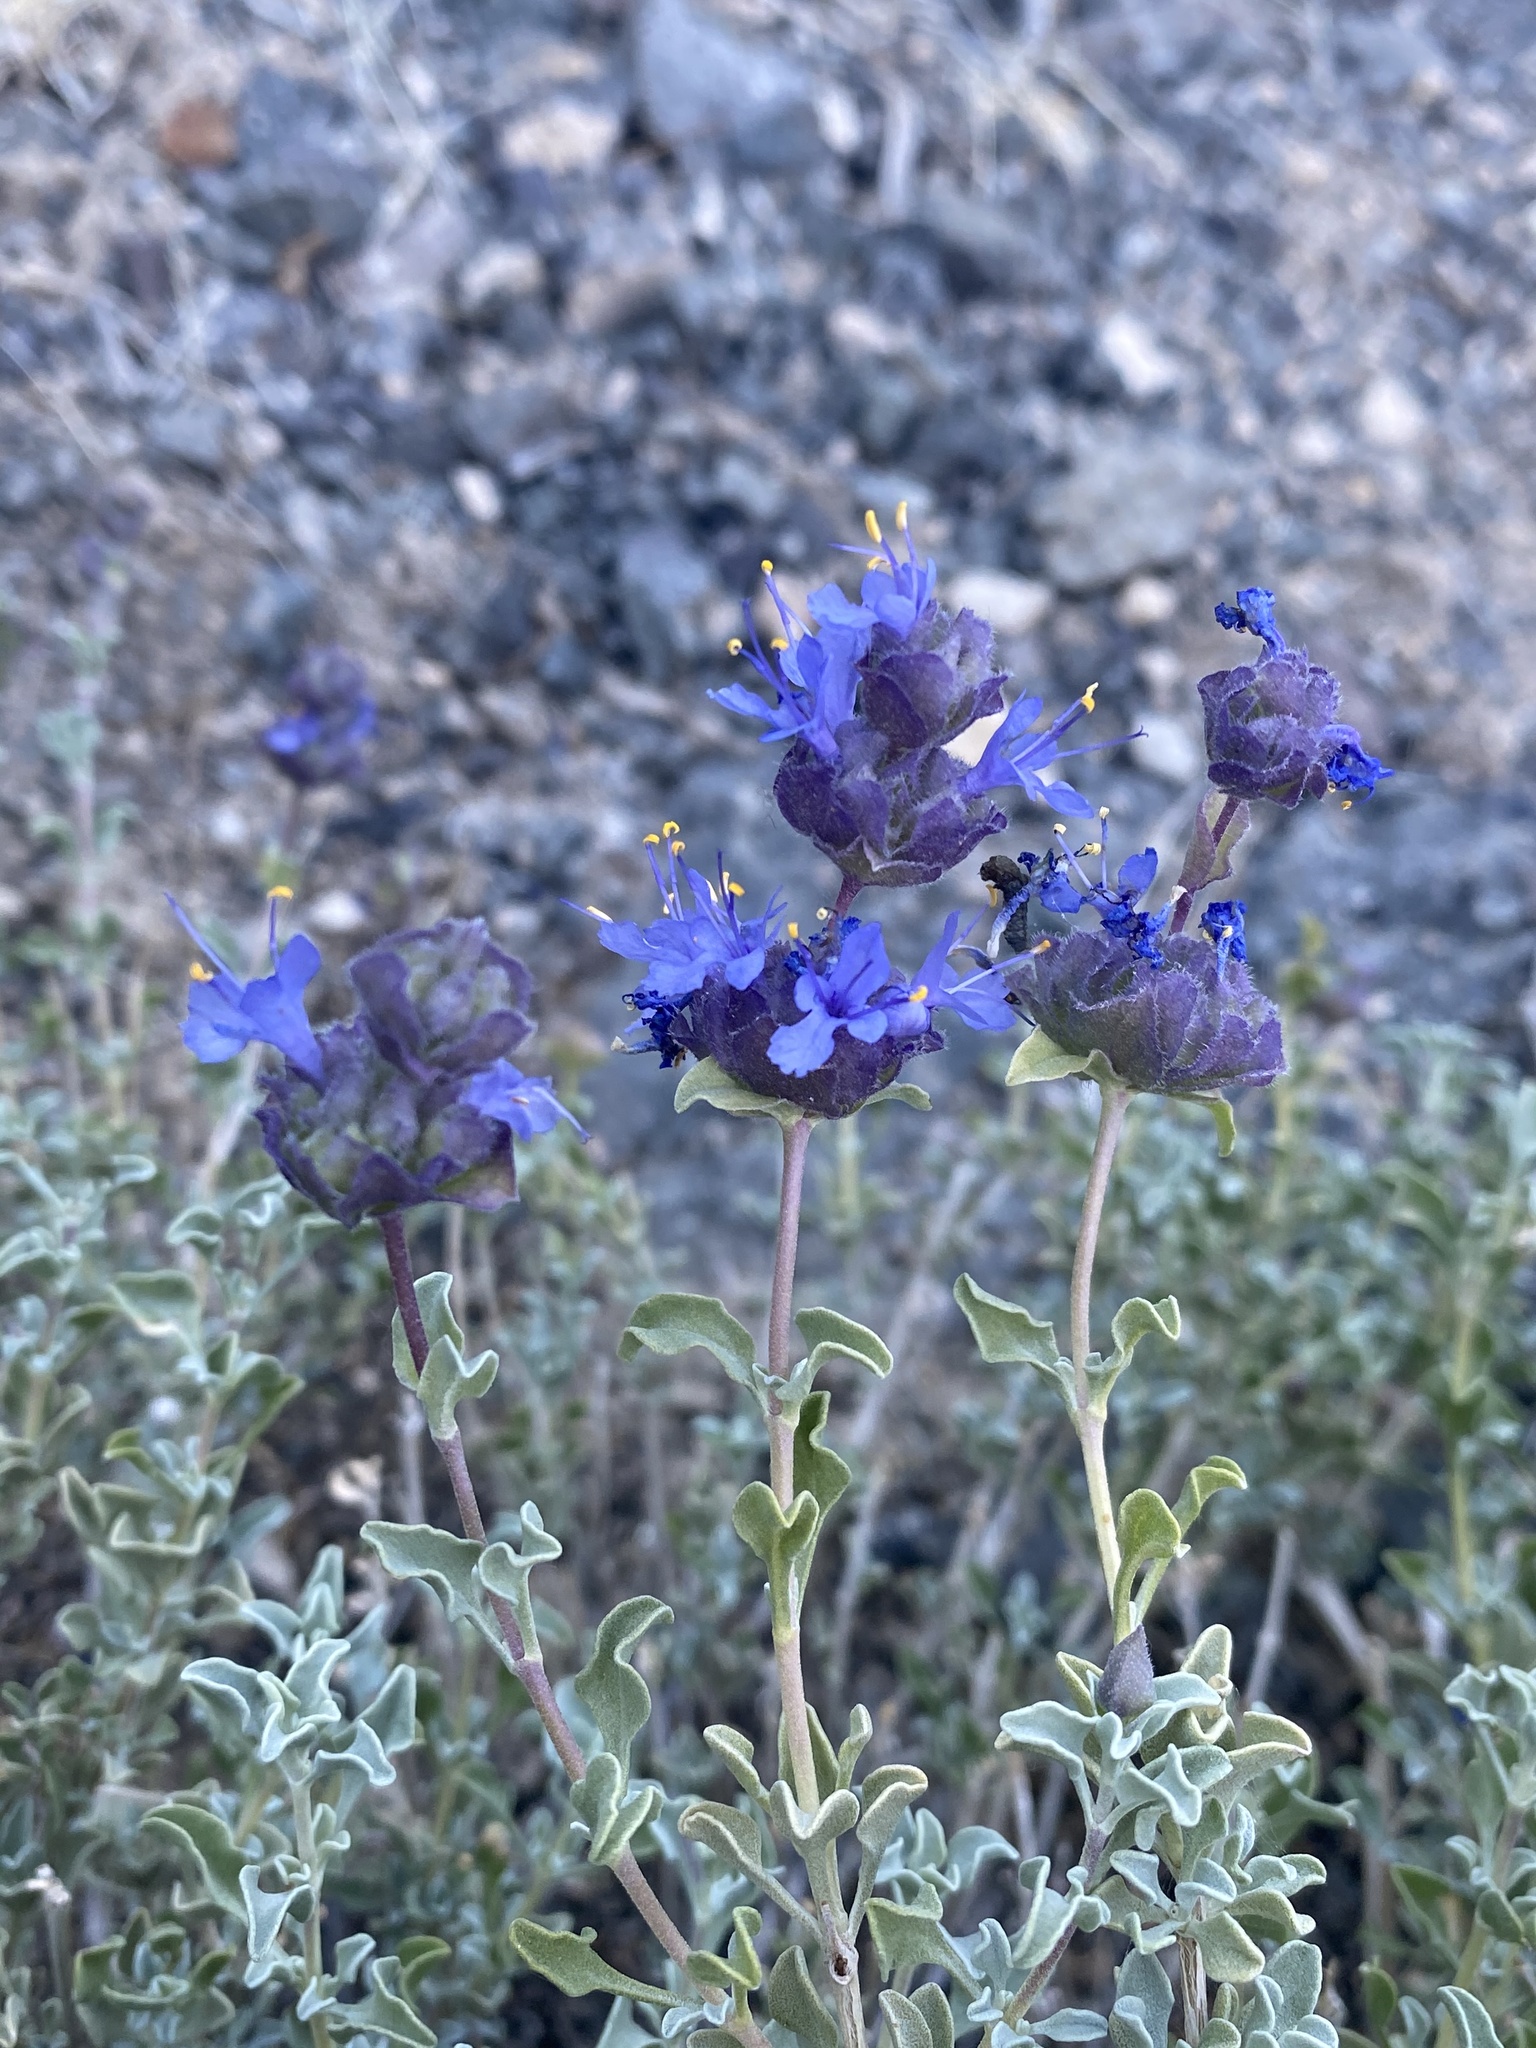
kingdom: Plantae
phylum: Tracheophyta
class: Magnoliopsida
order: Lamiales
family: Lamiaceae
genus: Salvia
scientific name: Salvia dorrii
